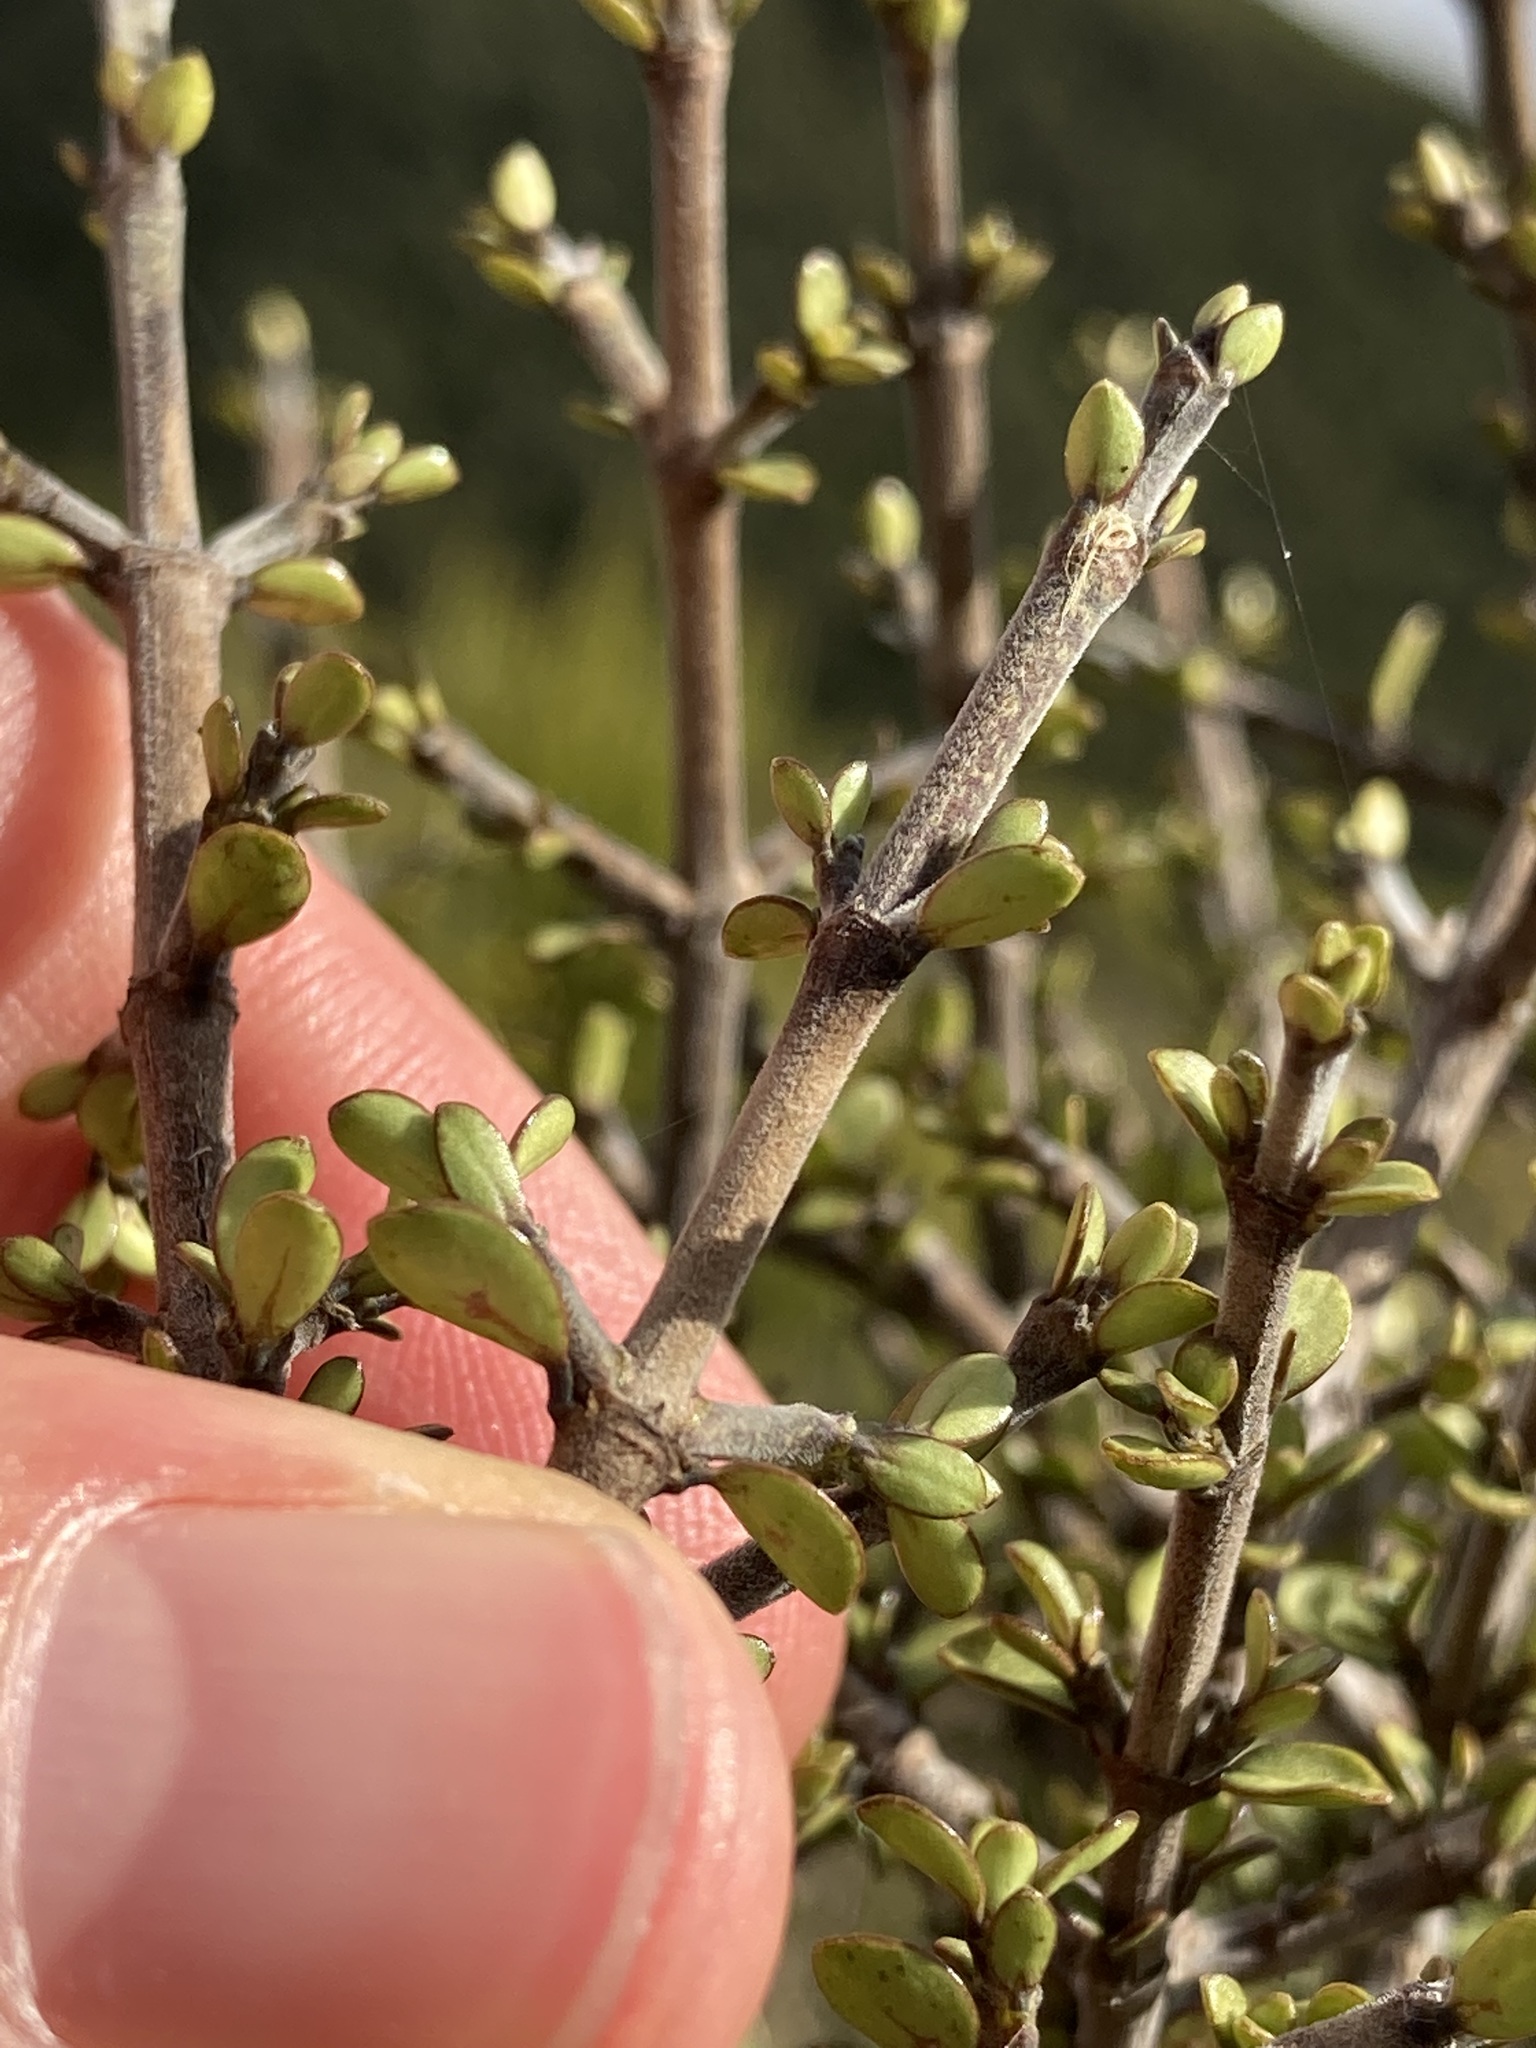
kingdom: Plantae
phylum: Tracheophyta
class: Magnoliopsida
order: Gentianales
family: Rubiaceae
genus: Coprosma
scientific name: Coprosma dumosa
